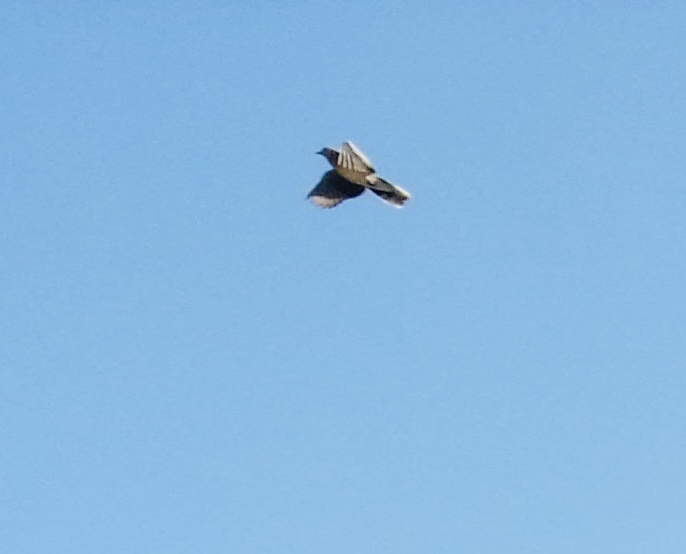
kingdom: Animalia
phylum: Chordata
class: Aves
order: Columbiformes
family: Columbidae
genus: Columba
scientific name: Columba livia
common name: Rock pigeon
